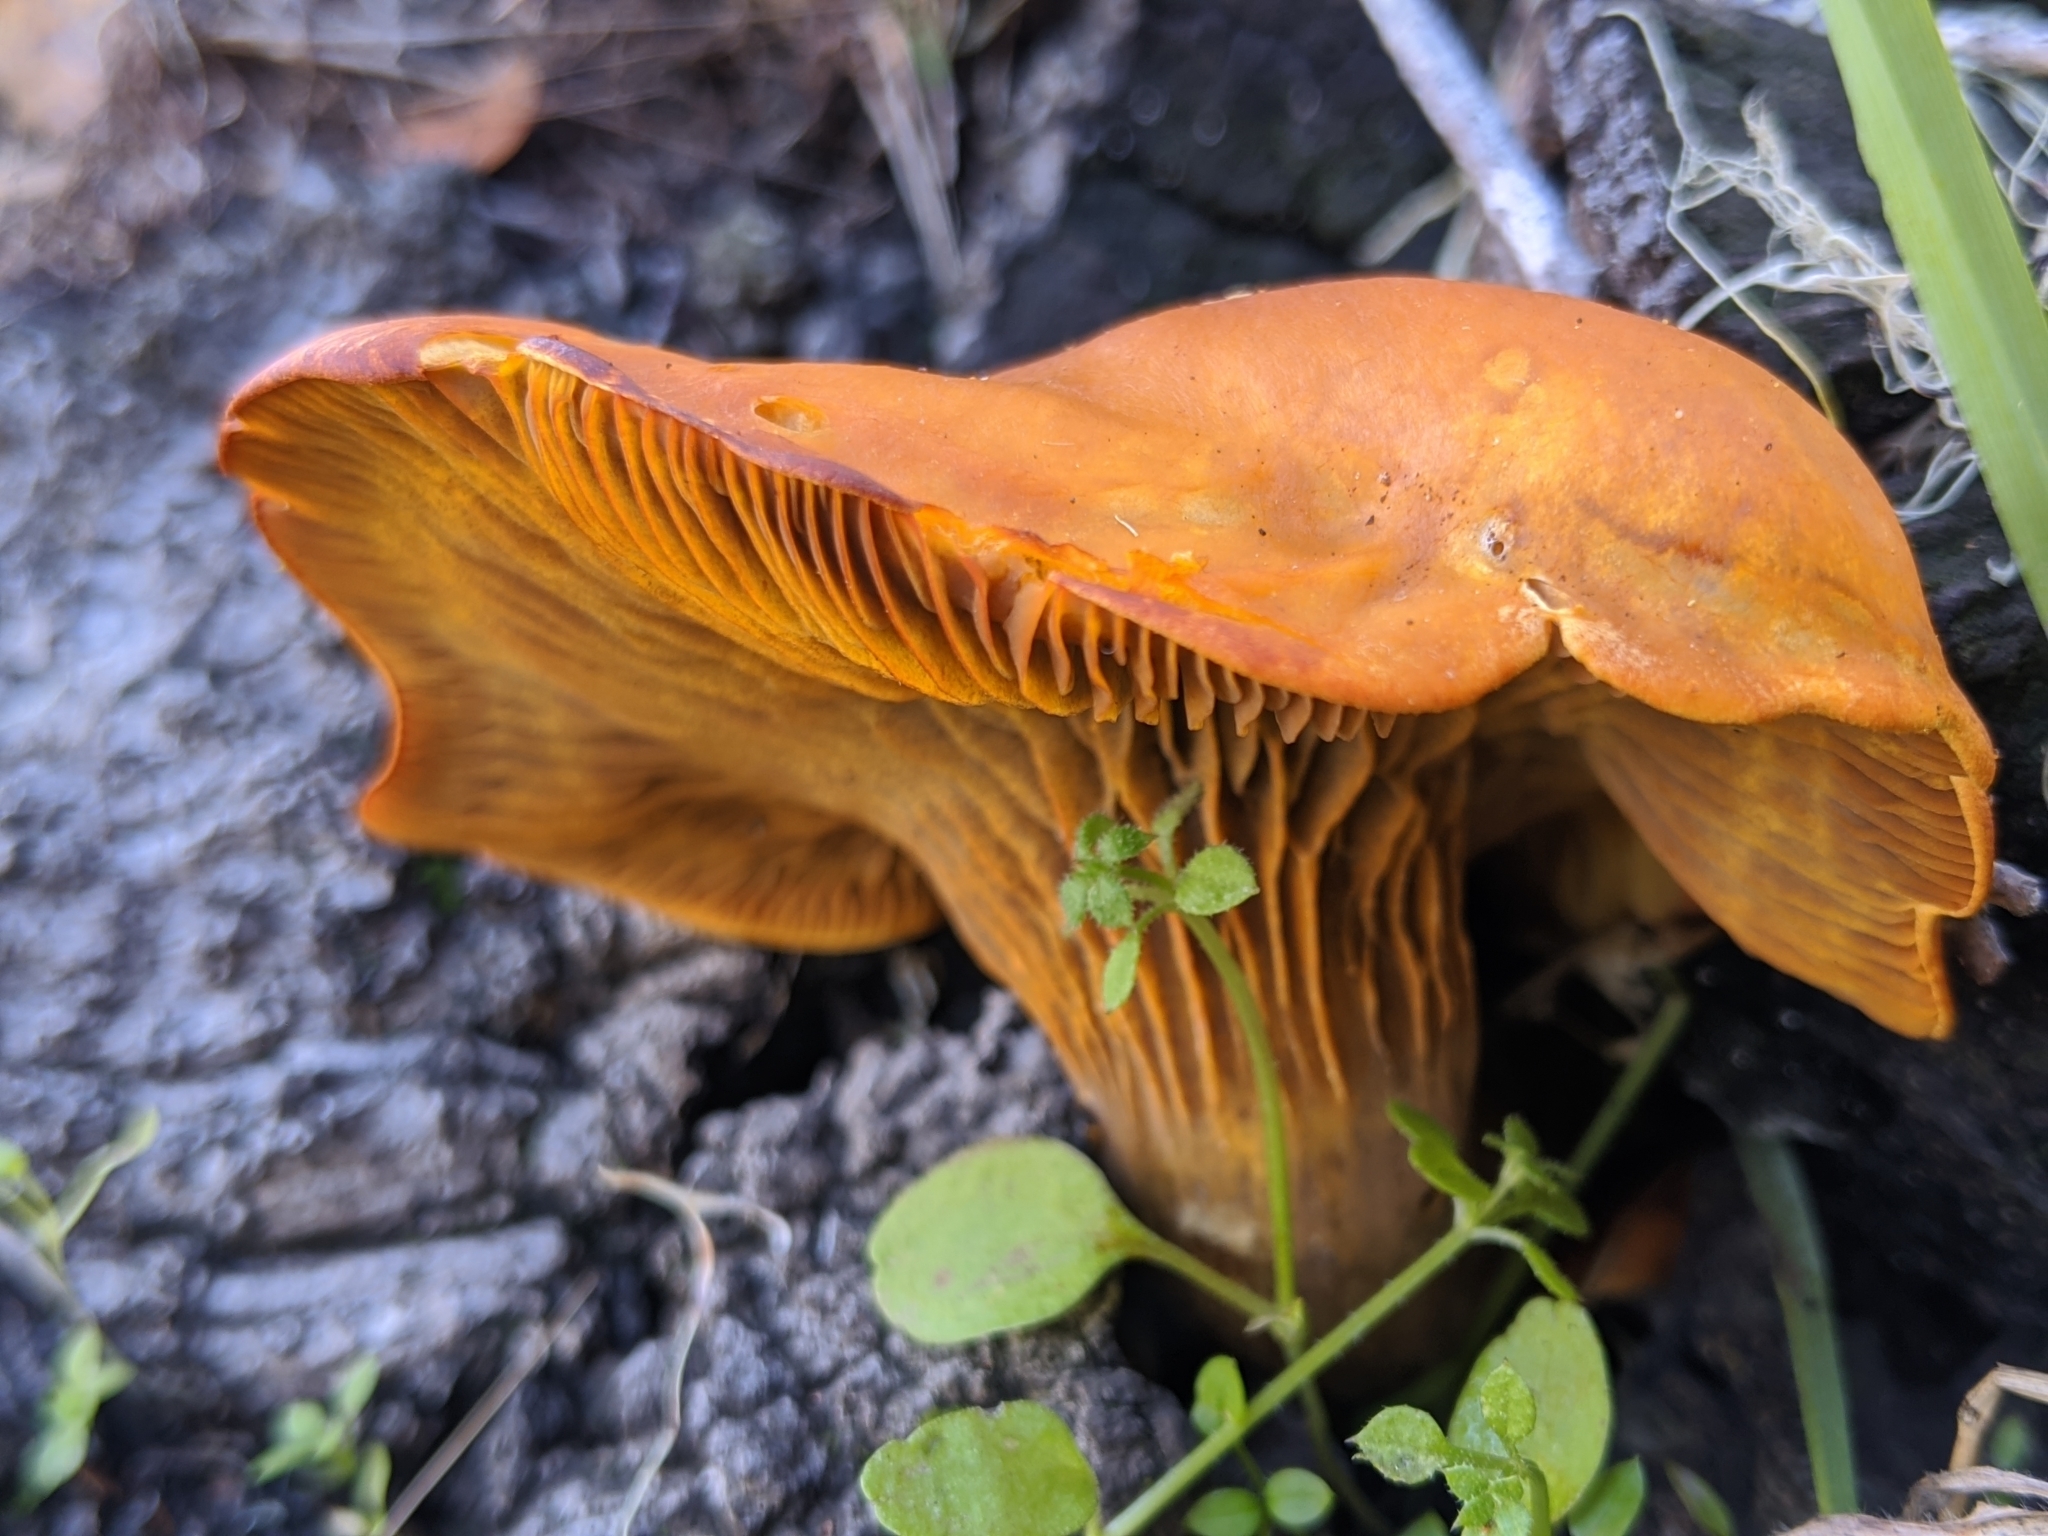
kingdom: Fungi
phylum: Basidiomycota
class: Agaricomycetes
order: Agaricales
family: Omphalotaceae
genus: Omphalotus
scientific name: Omphalotus olivascens
